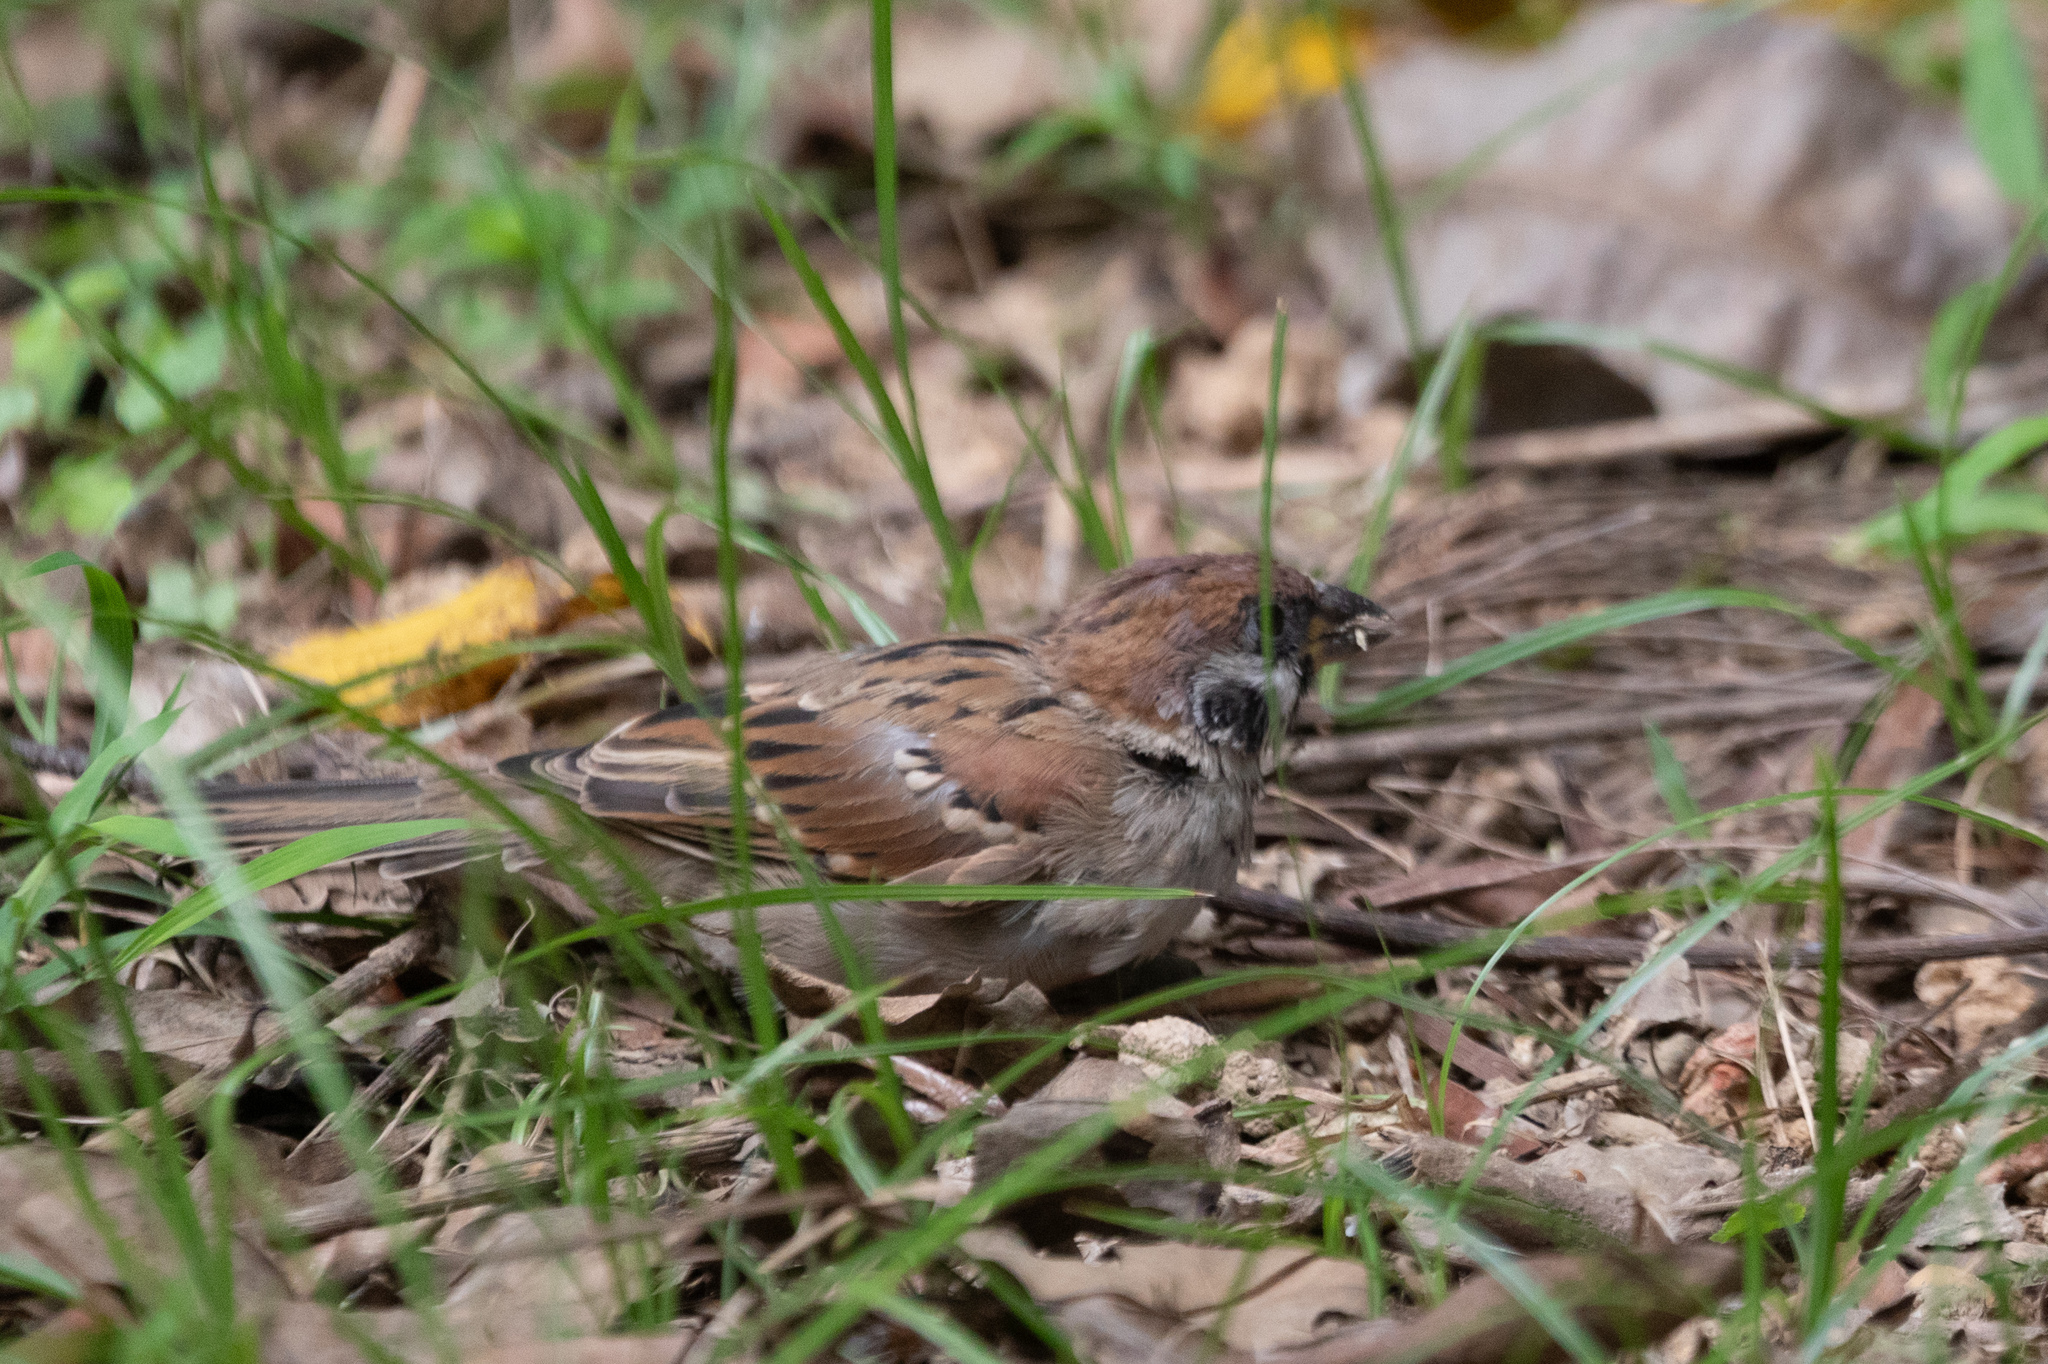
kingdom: Animalia
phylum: Chordata
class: Aves
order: Passeriformes
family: Passeridae
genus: Passer
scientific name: Passer montanus
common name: Eurasian tree sparrow
